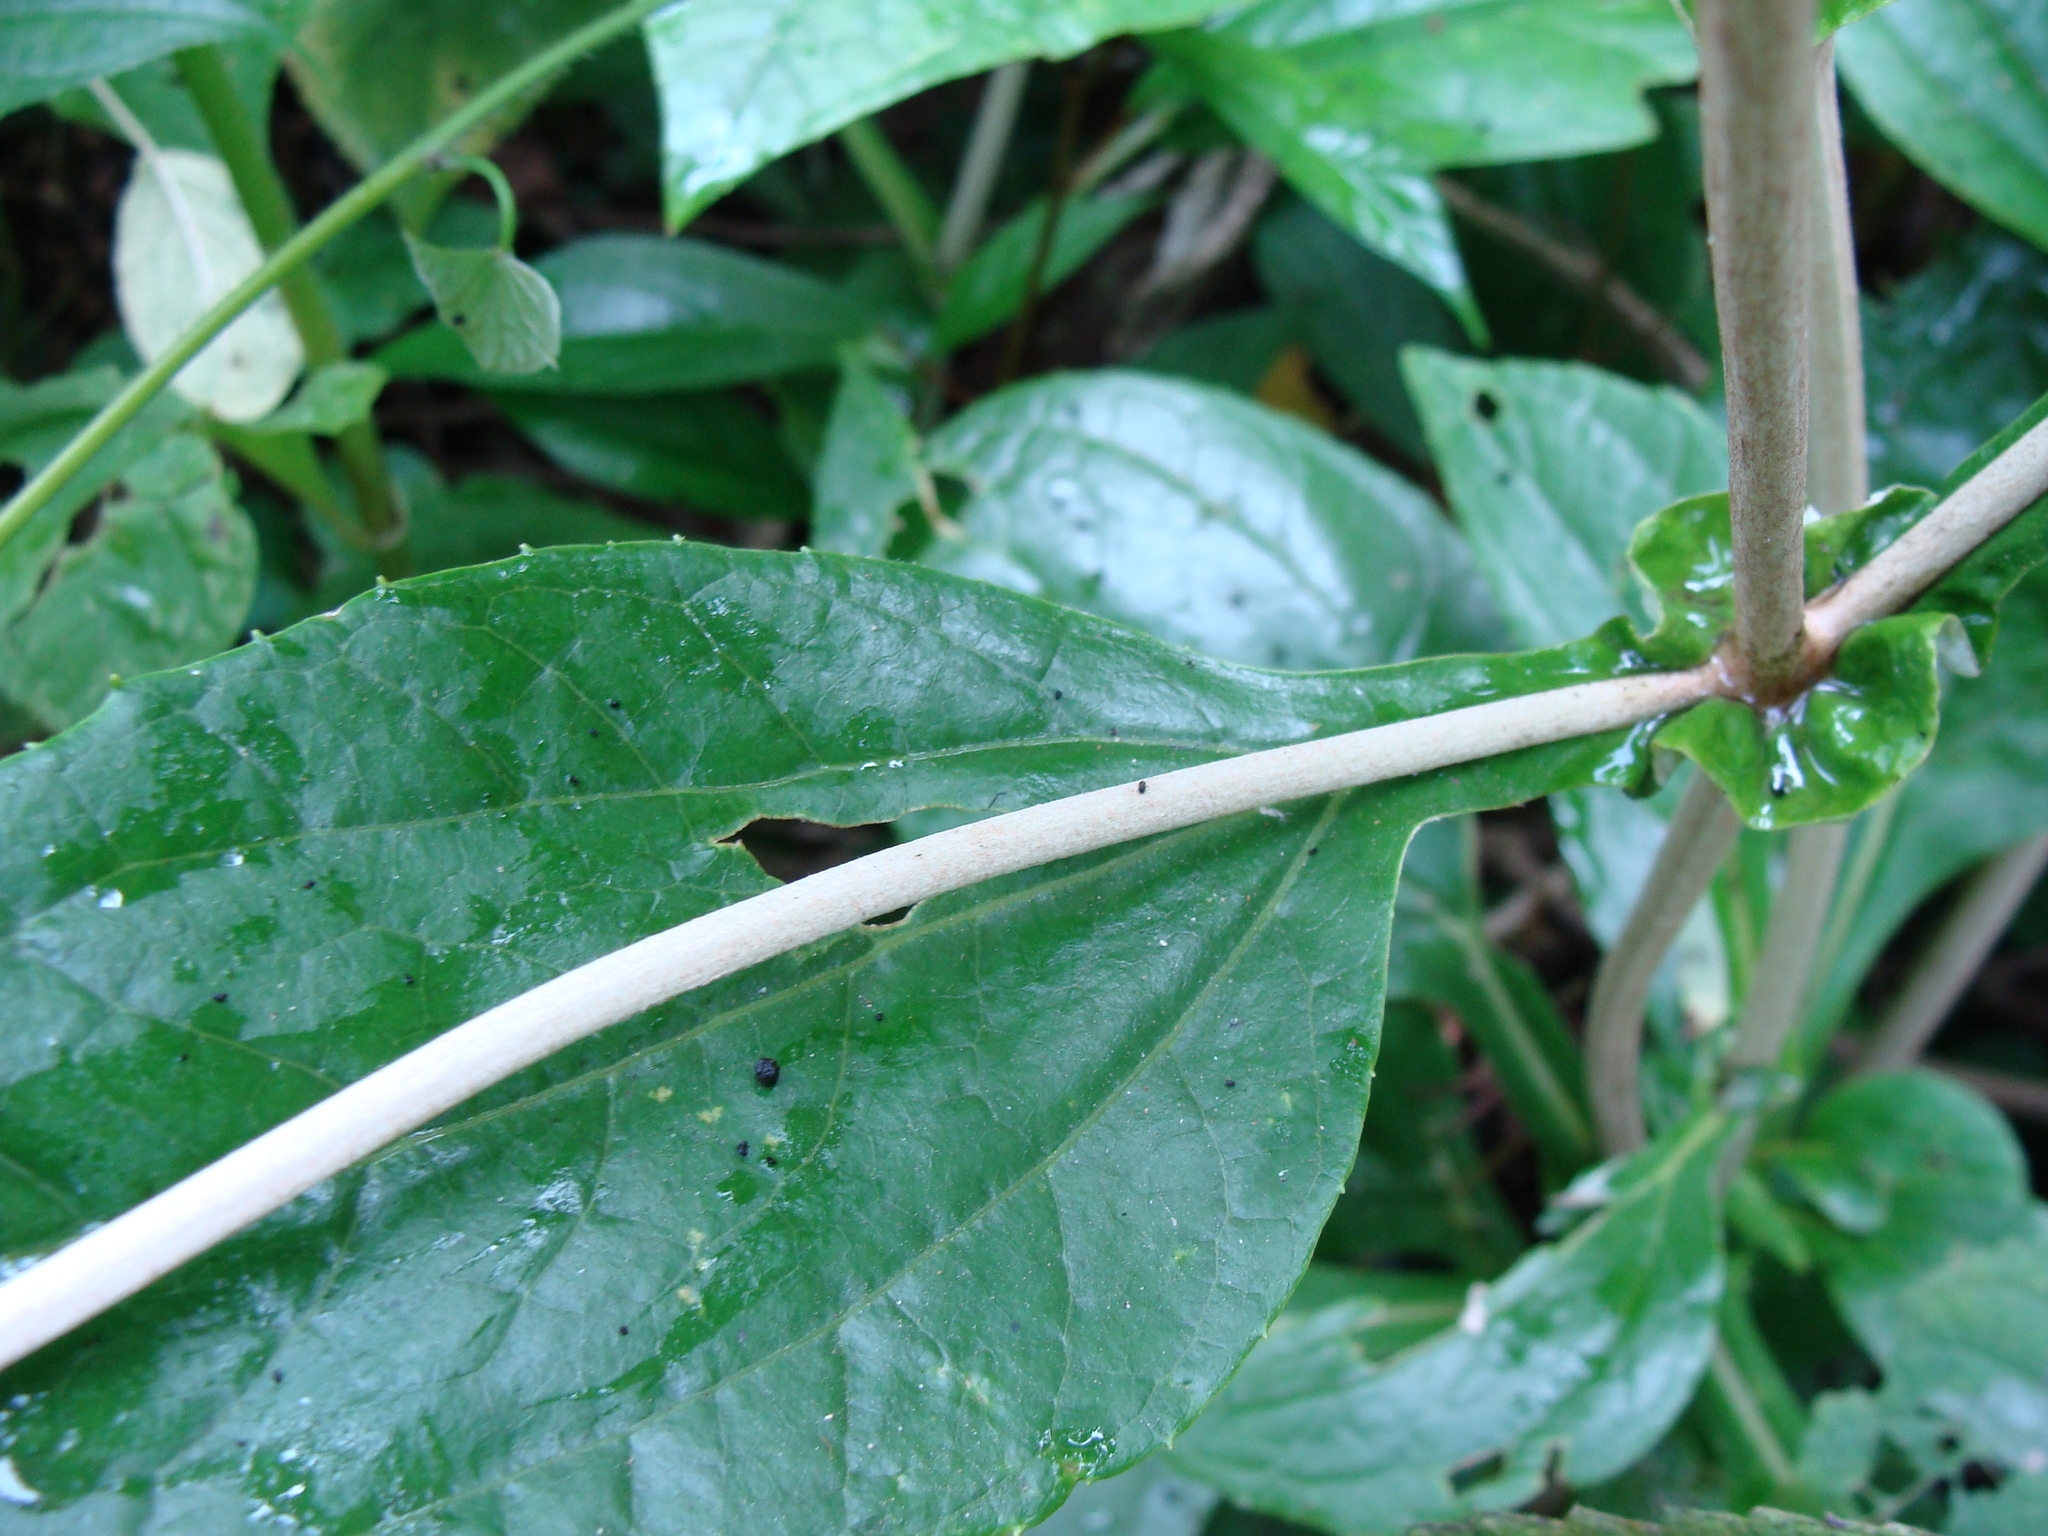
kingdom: Plantae
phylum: Tracheophyta
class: Magnoliopsida
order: Asterales
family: Asteraceae
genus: Liabum
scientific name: Liabum asclepiadeum
